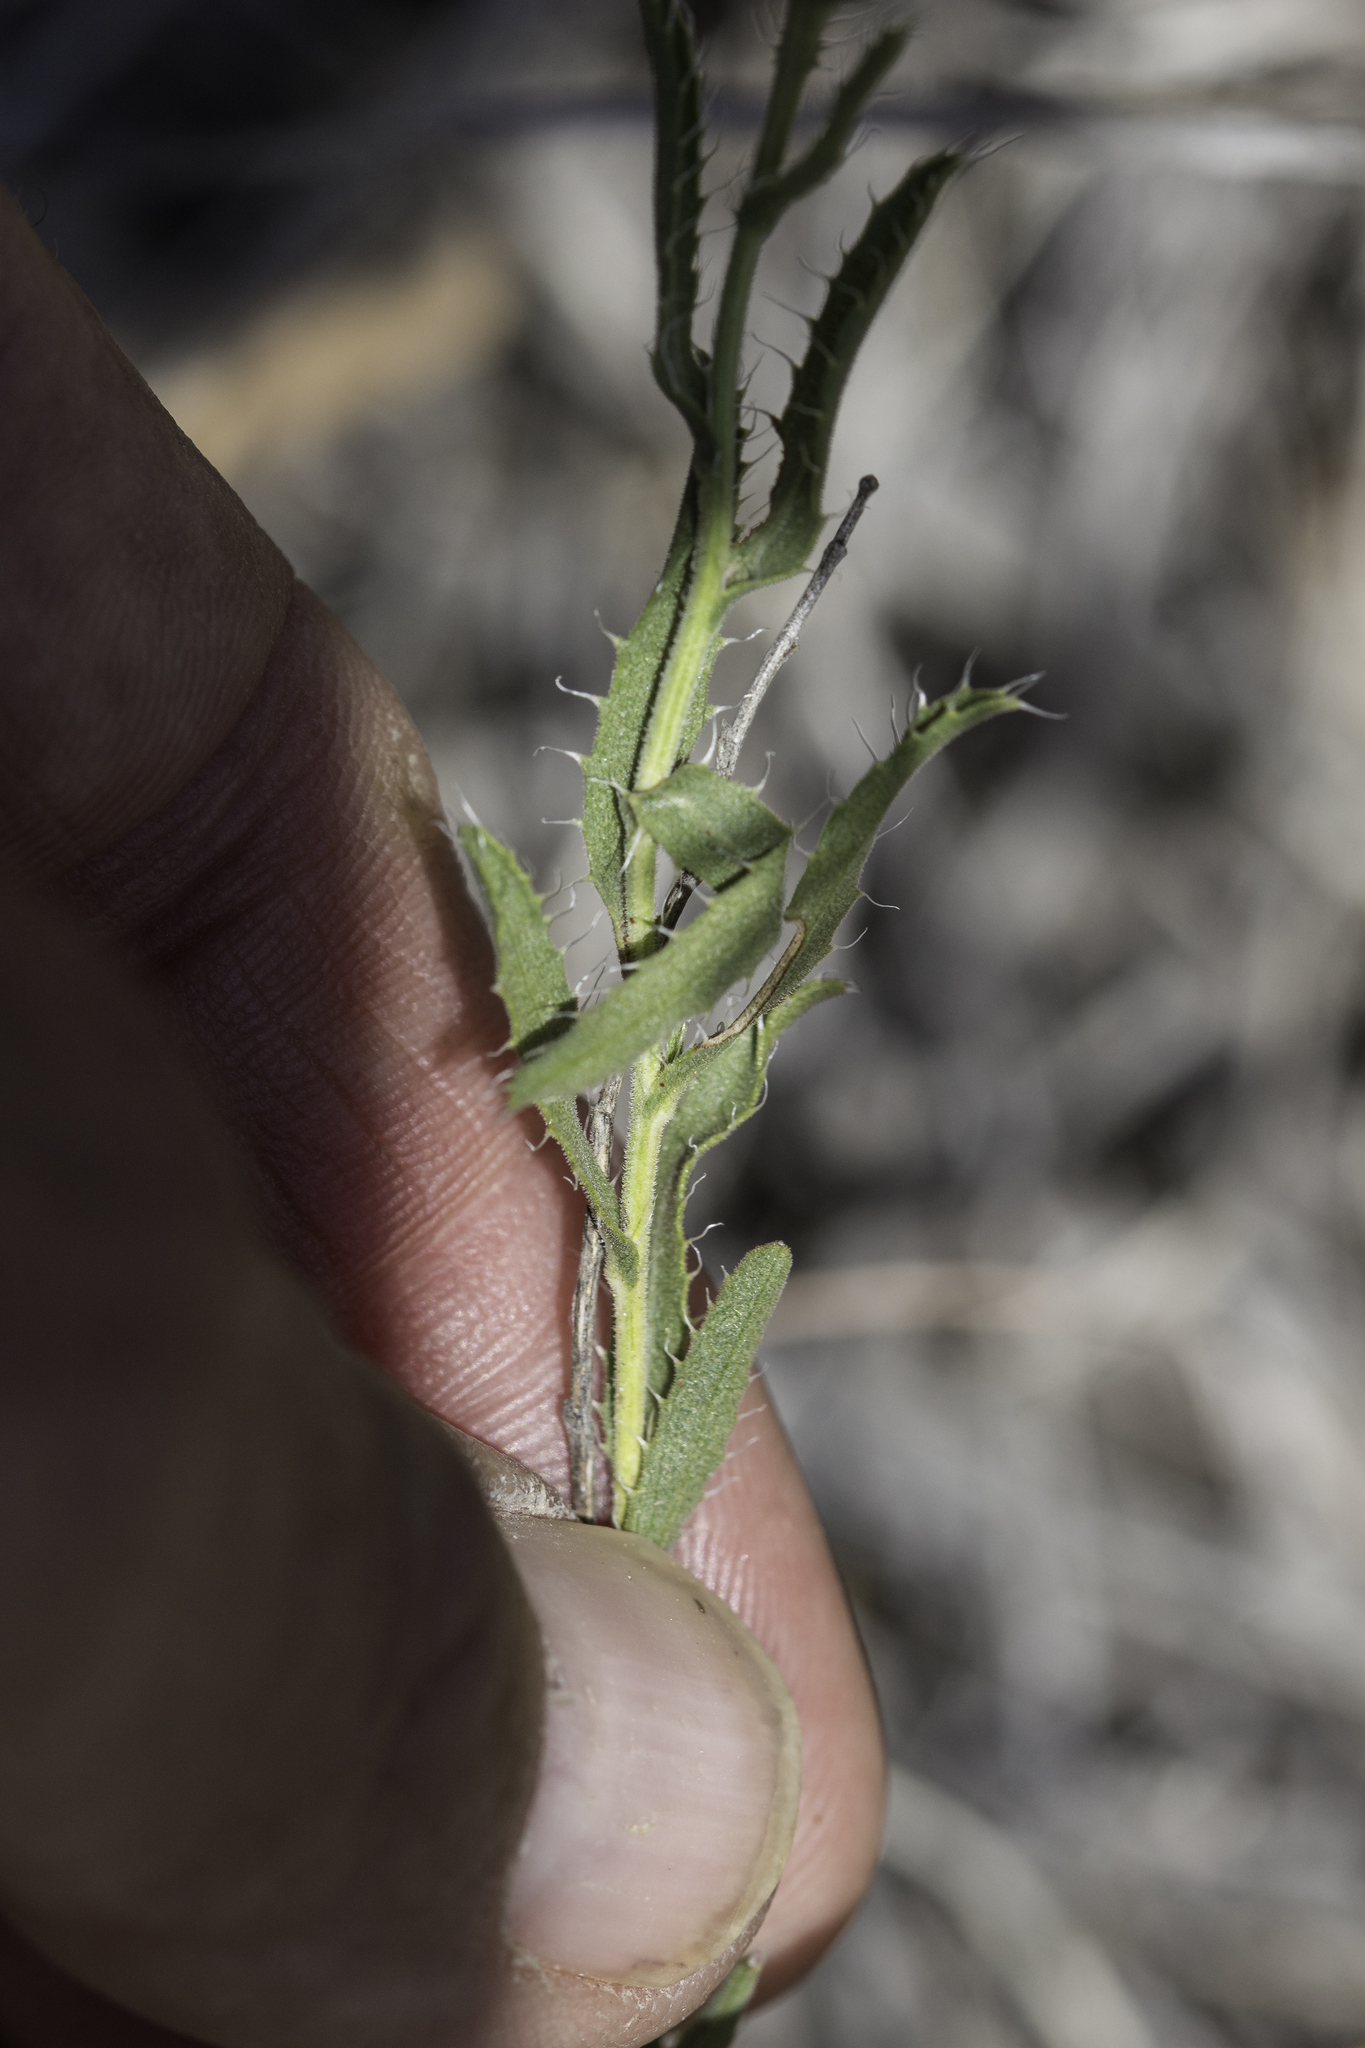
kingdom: Plantae
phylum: Tracheophyta
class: Magnoliopsida
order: Asterales
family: Asteraceae
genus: Xanthisma
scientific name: Xanthisma blephariphyllum
